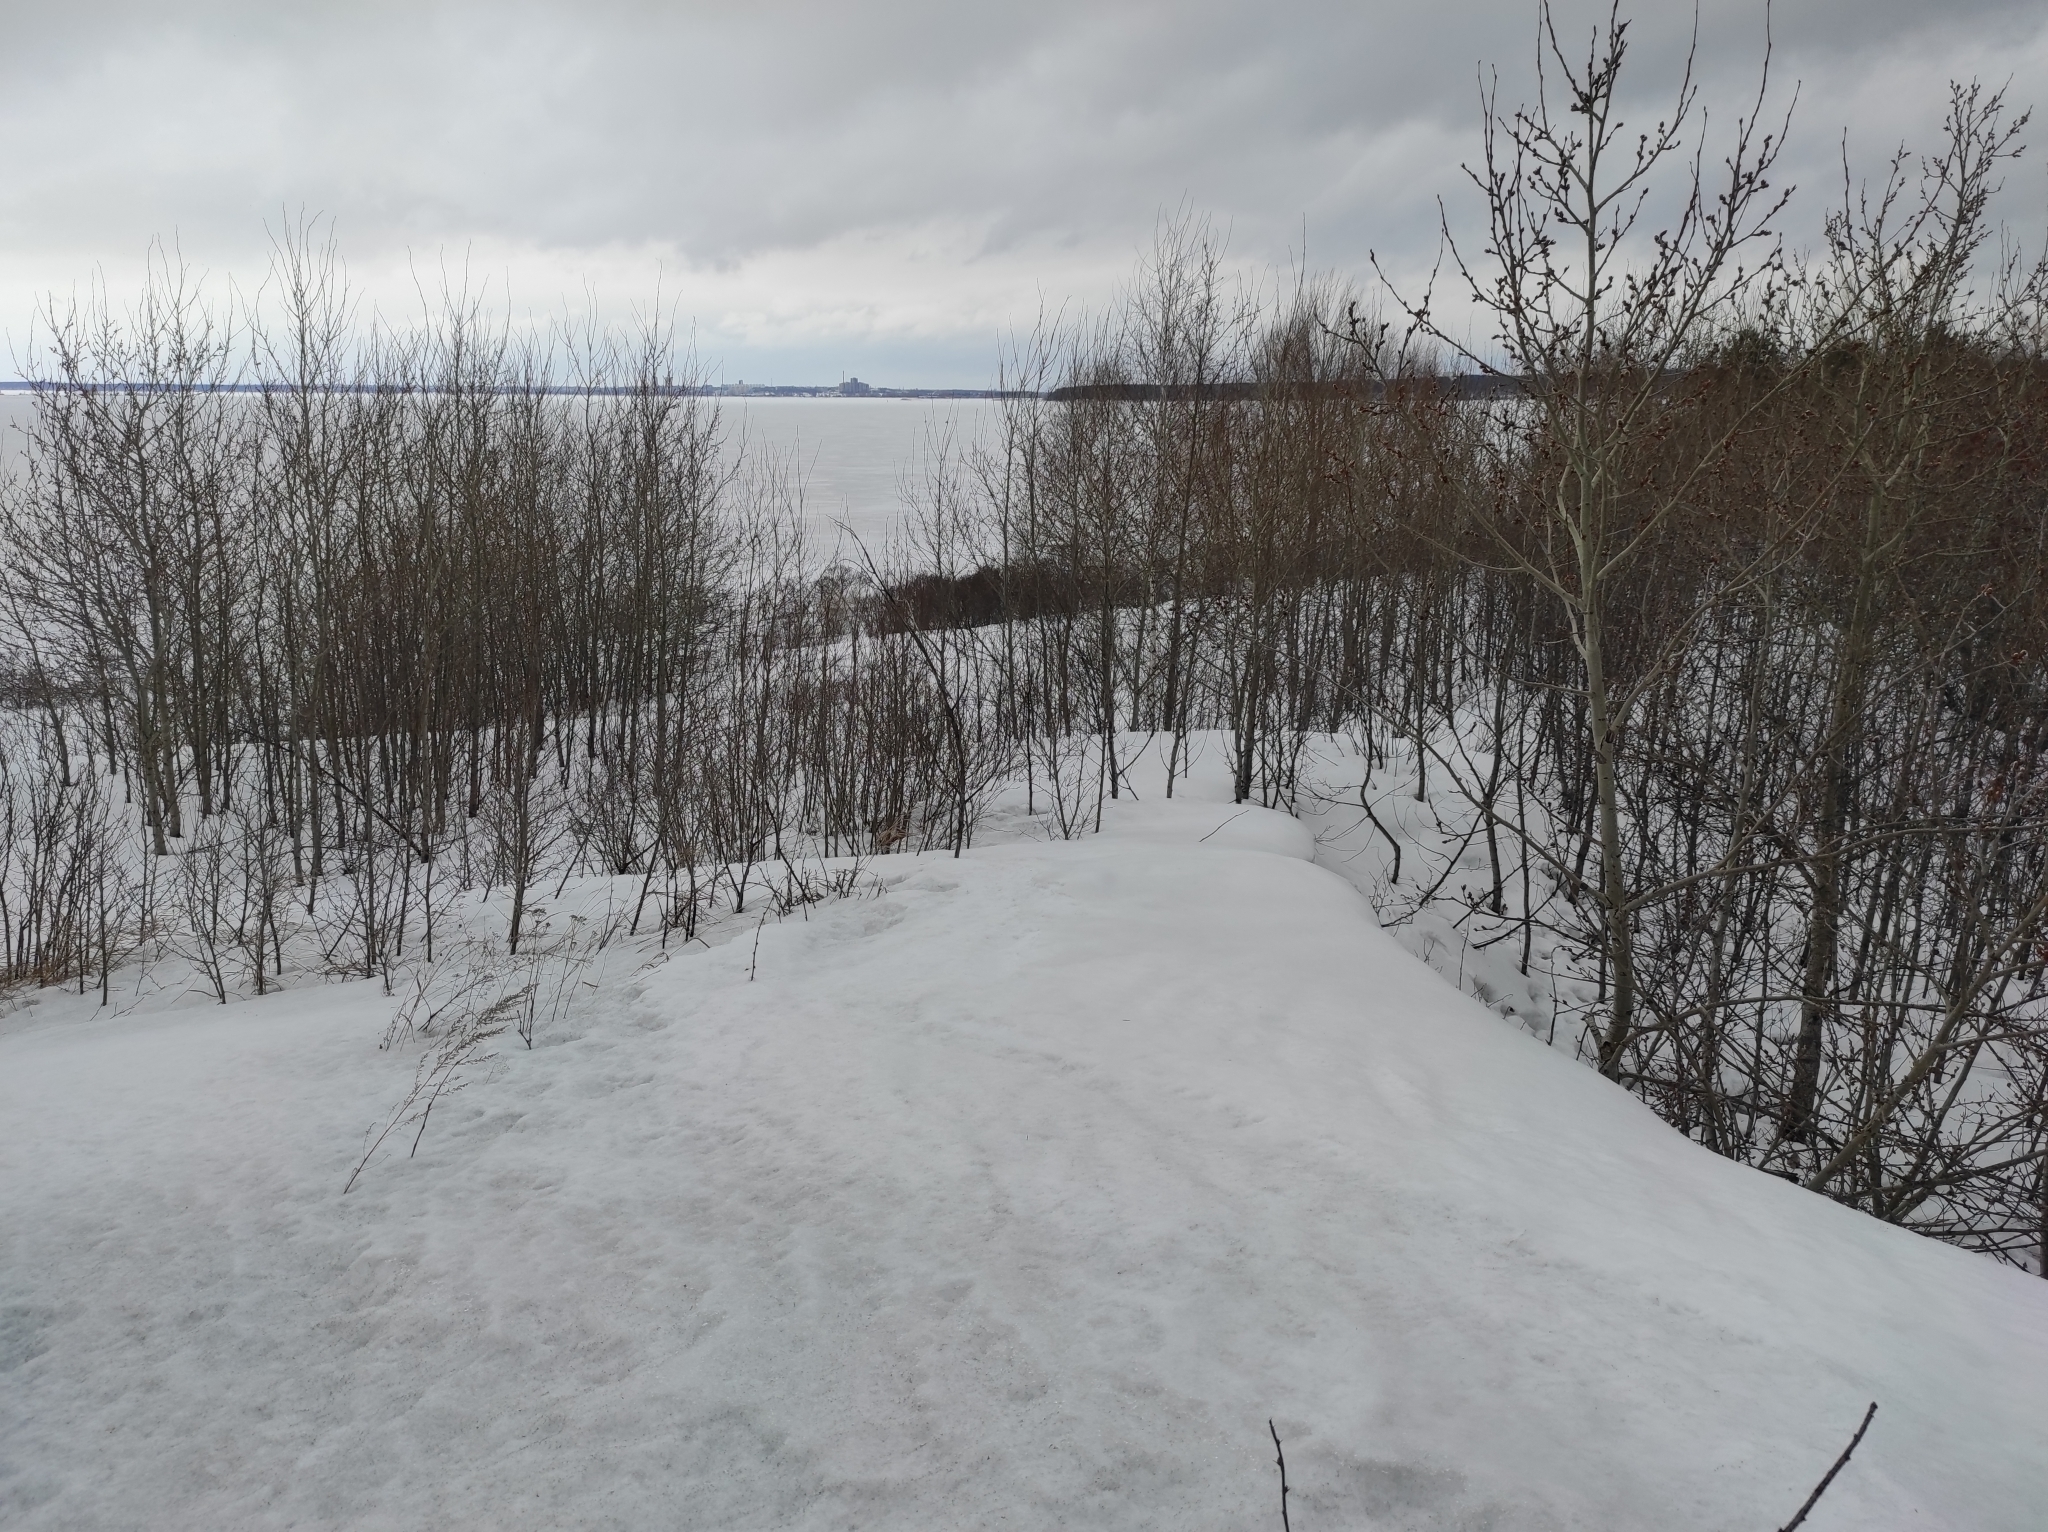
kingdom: Plantae
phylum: Tracheophyta
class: Magnoliopsida
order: Malpighiales
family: Salicaceae
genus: Populus
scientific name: Populus tremula
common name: European aspen
